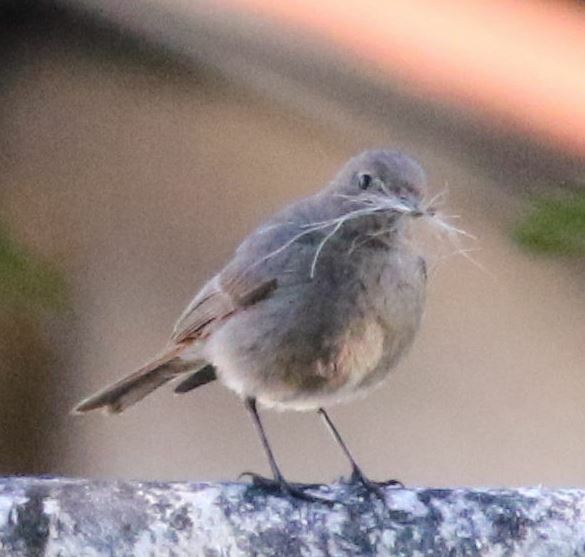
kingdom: Animalia
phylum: Chordata
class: Aves
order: Passeriformes
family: Muscicapidae
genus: Phoenicurus
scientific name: Phoenicurus ochruros
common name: Black redstart
